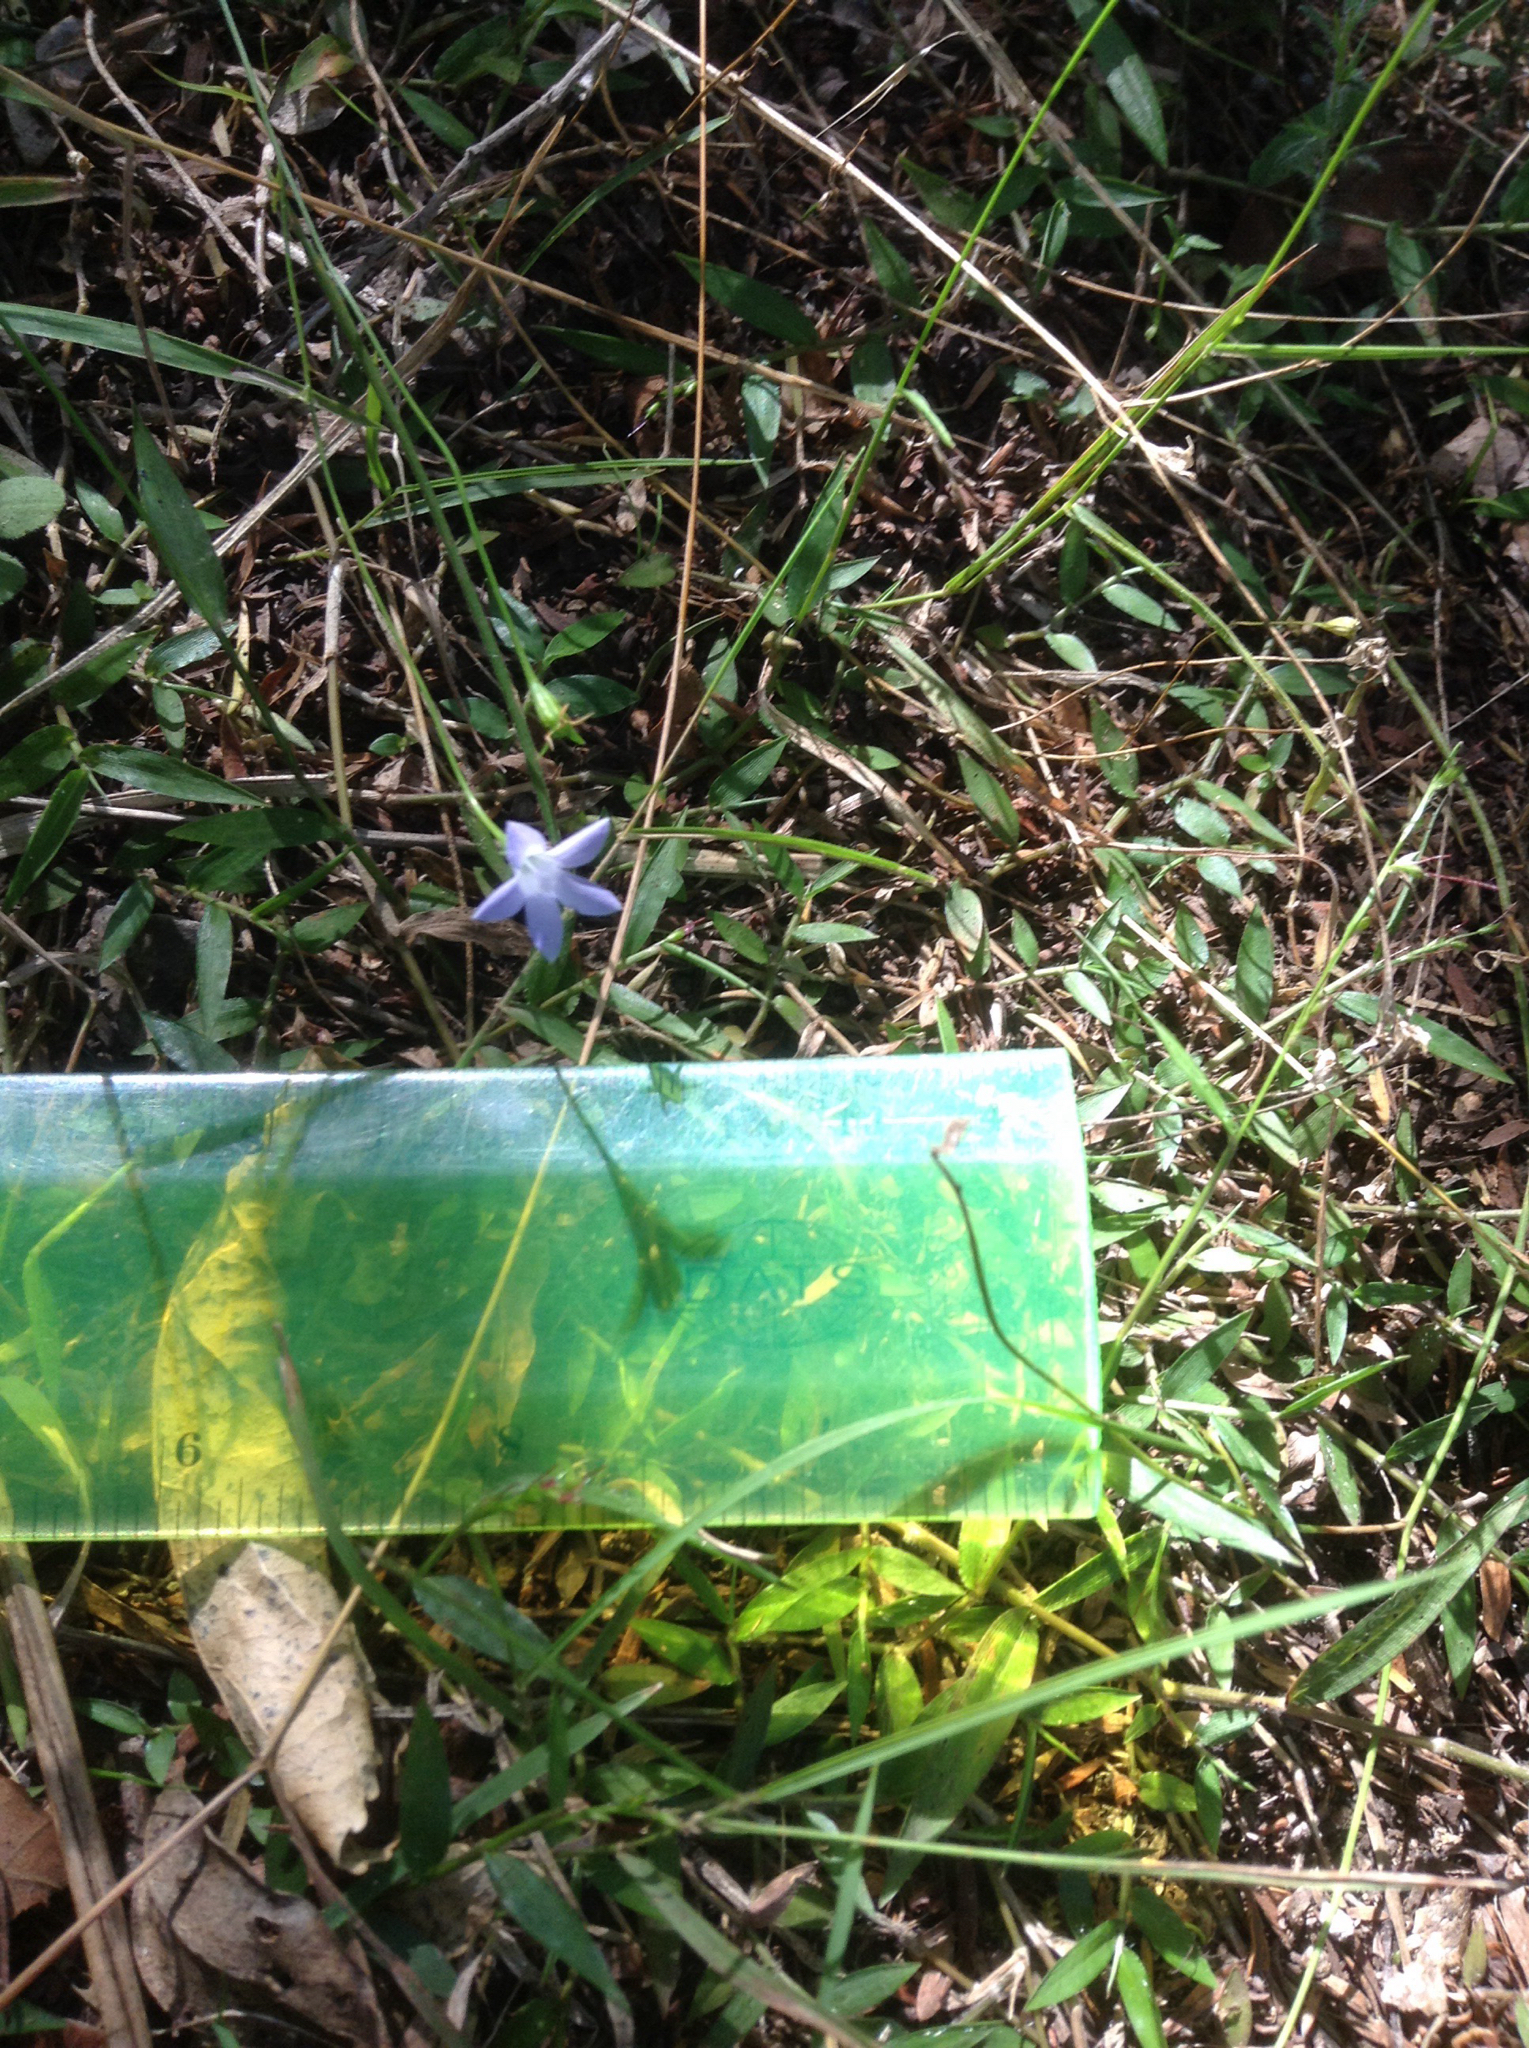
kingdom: Plantae
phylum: Tracheophyta
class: Magnoliopsida
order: Asterales
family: Campanulaceae
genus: Wahlenbergia
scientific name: Wahlenbergia violacea
